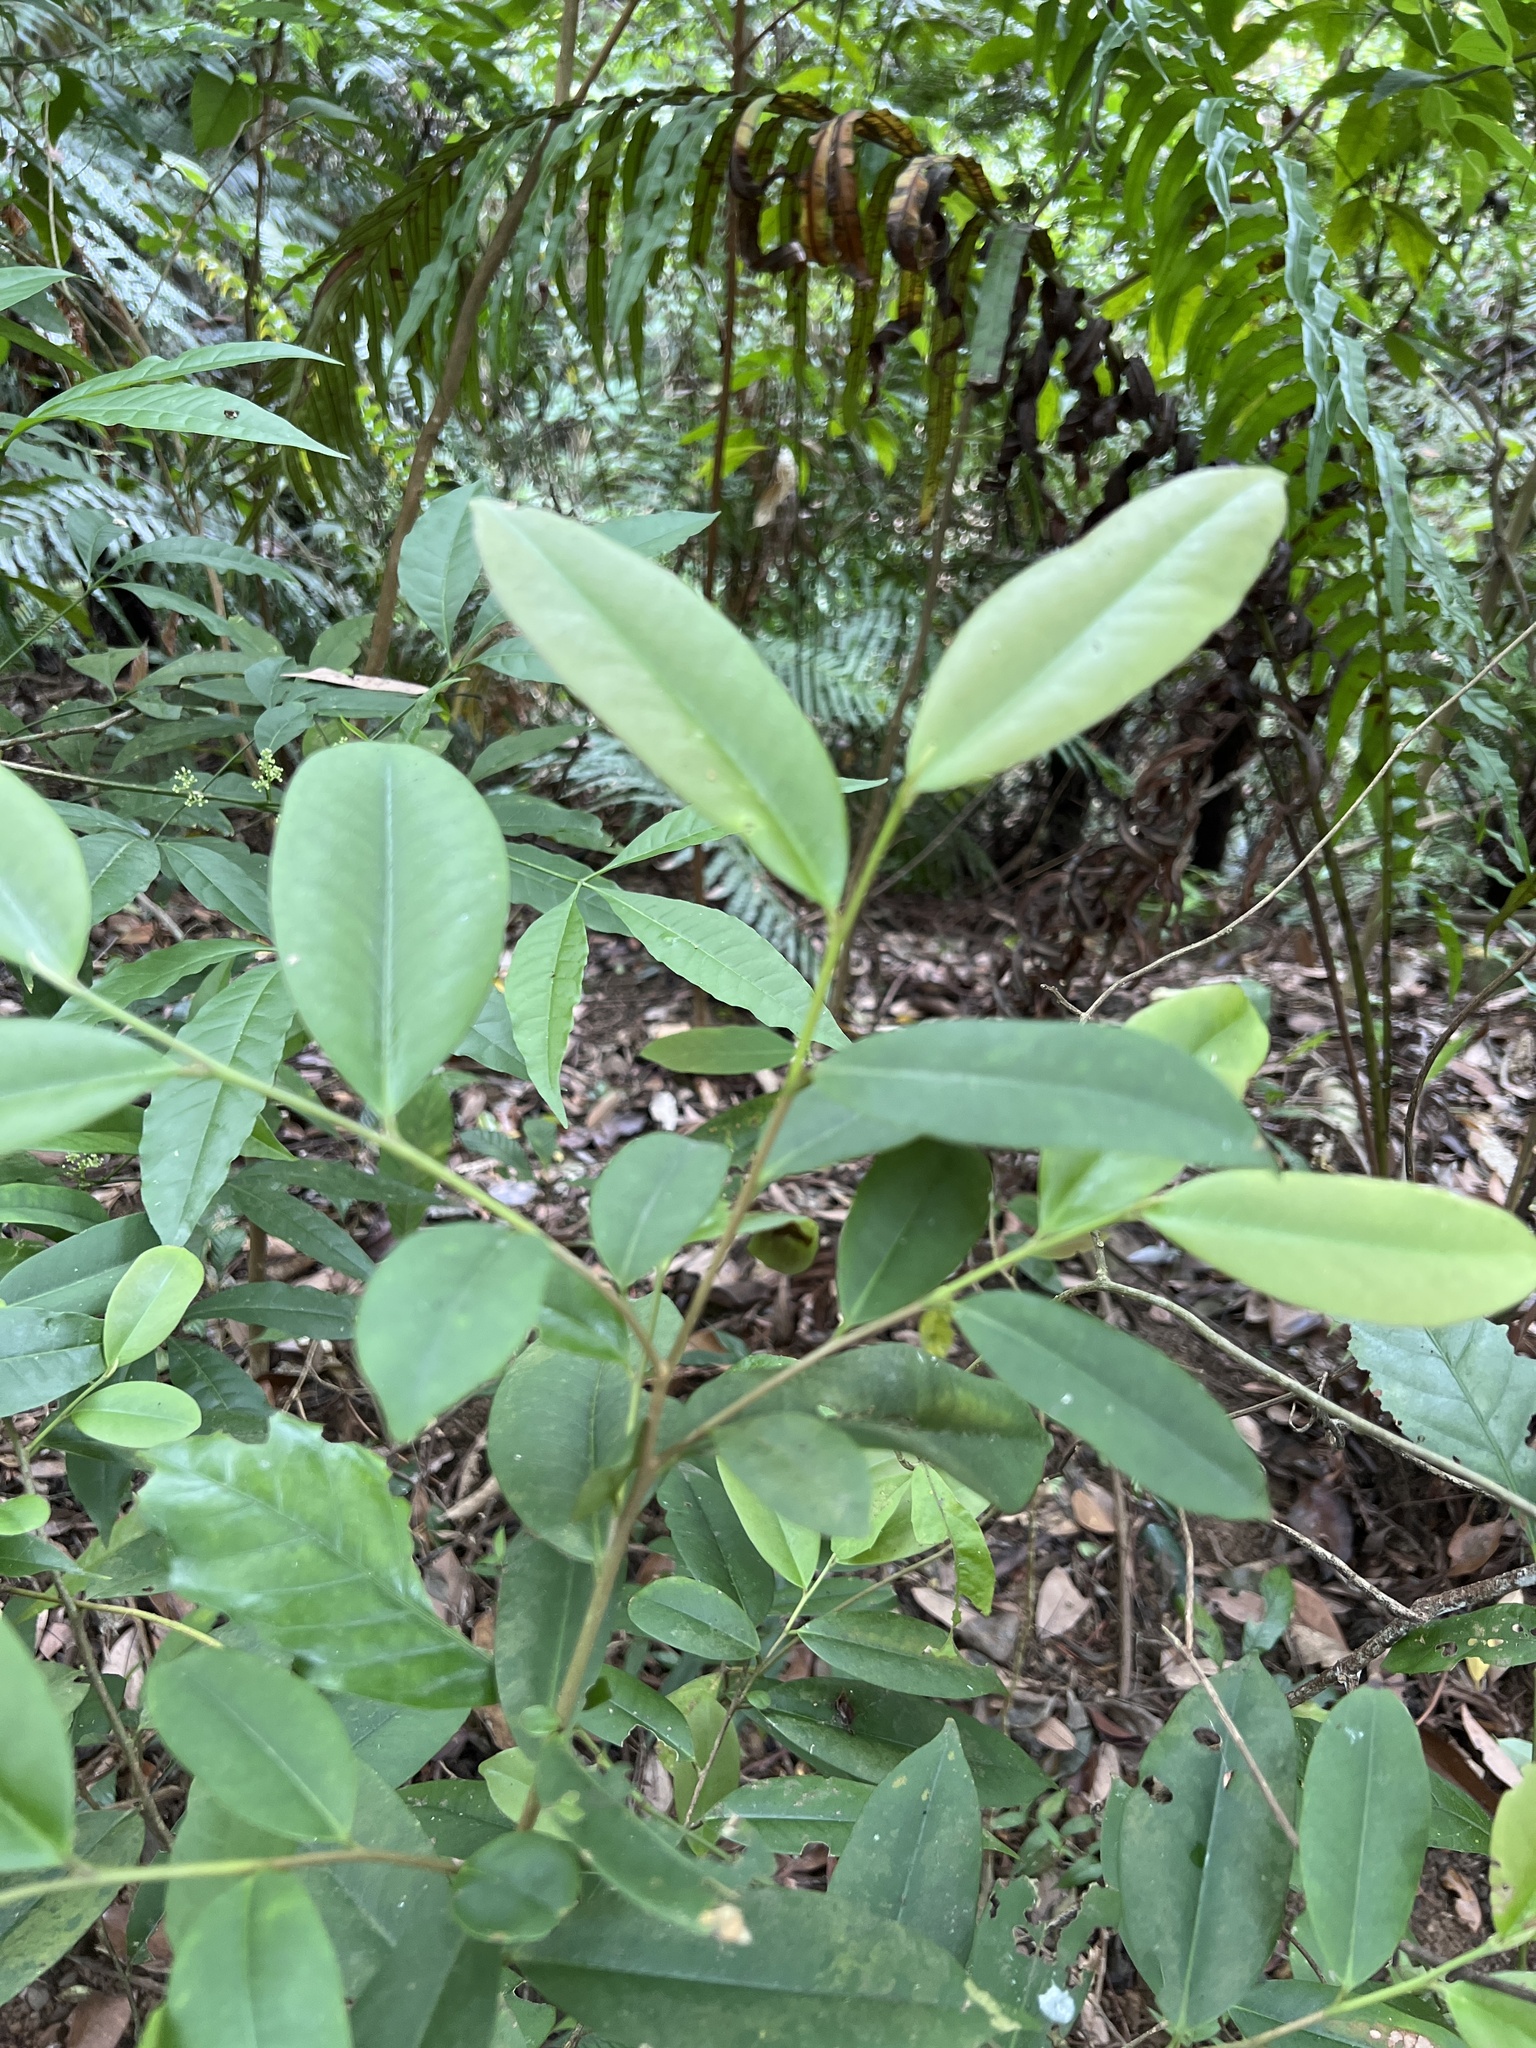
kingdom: Plantae
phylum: Tracheophyta
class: Magnoliopsida
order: Ericales
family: Pentaphylacaceae
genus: Adinandra
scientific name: Adinandra formosana
